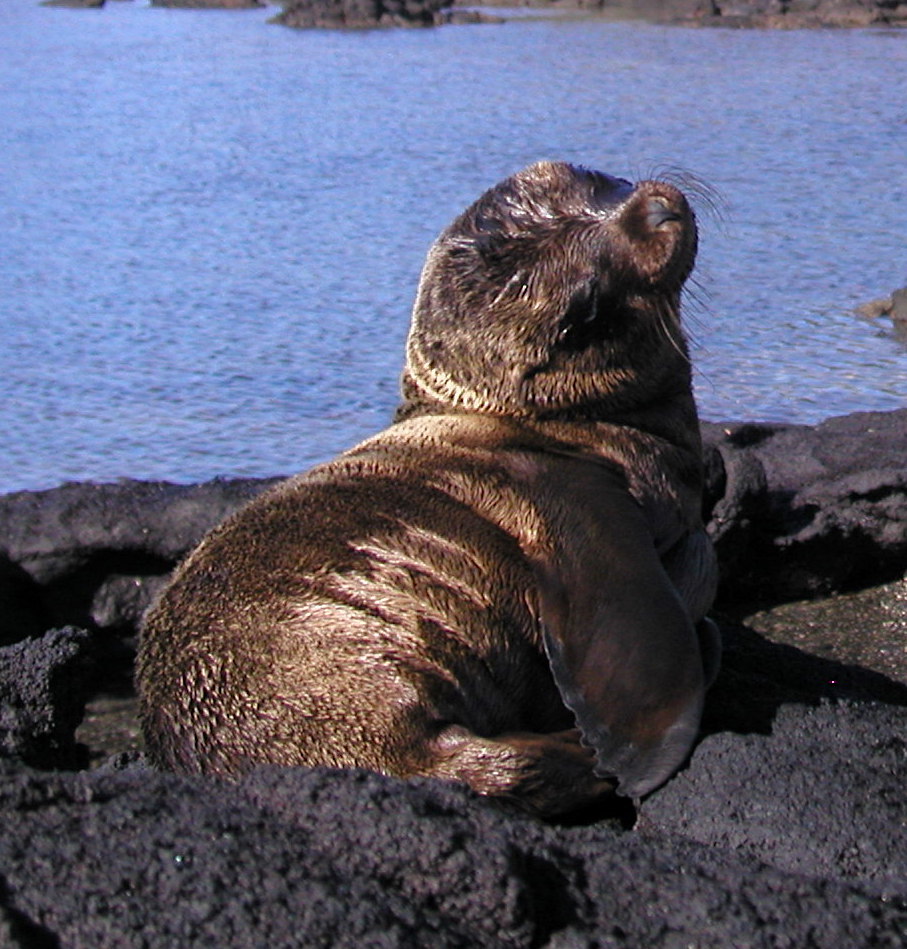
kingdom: Animalia
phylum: Chordata
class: Mammalia
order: Carnivora
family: Otariidae
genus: Zalophus
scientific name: Zalophus wollebaeki
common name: Galapagos sea lion
